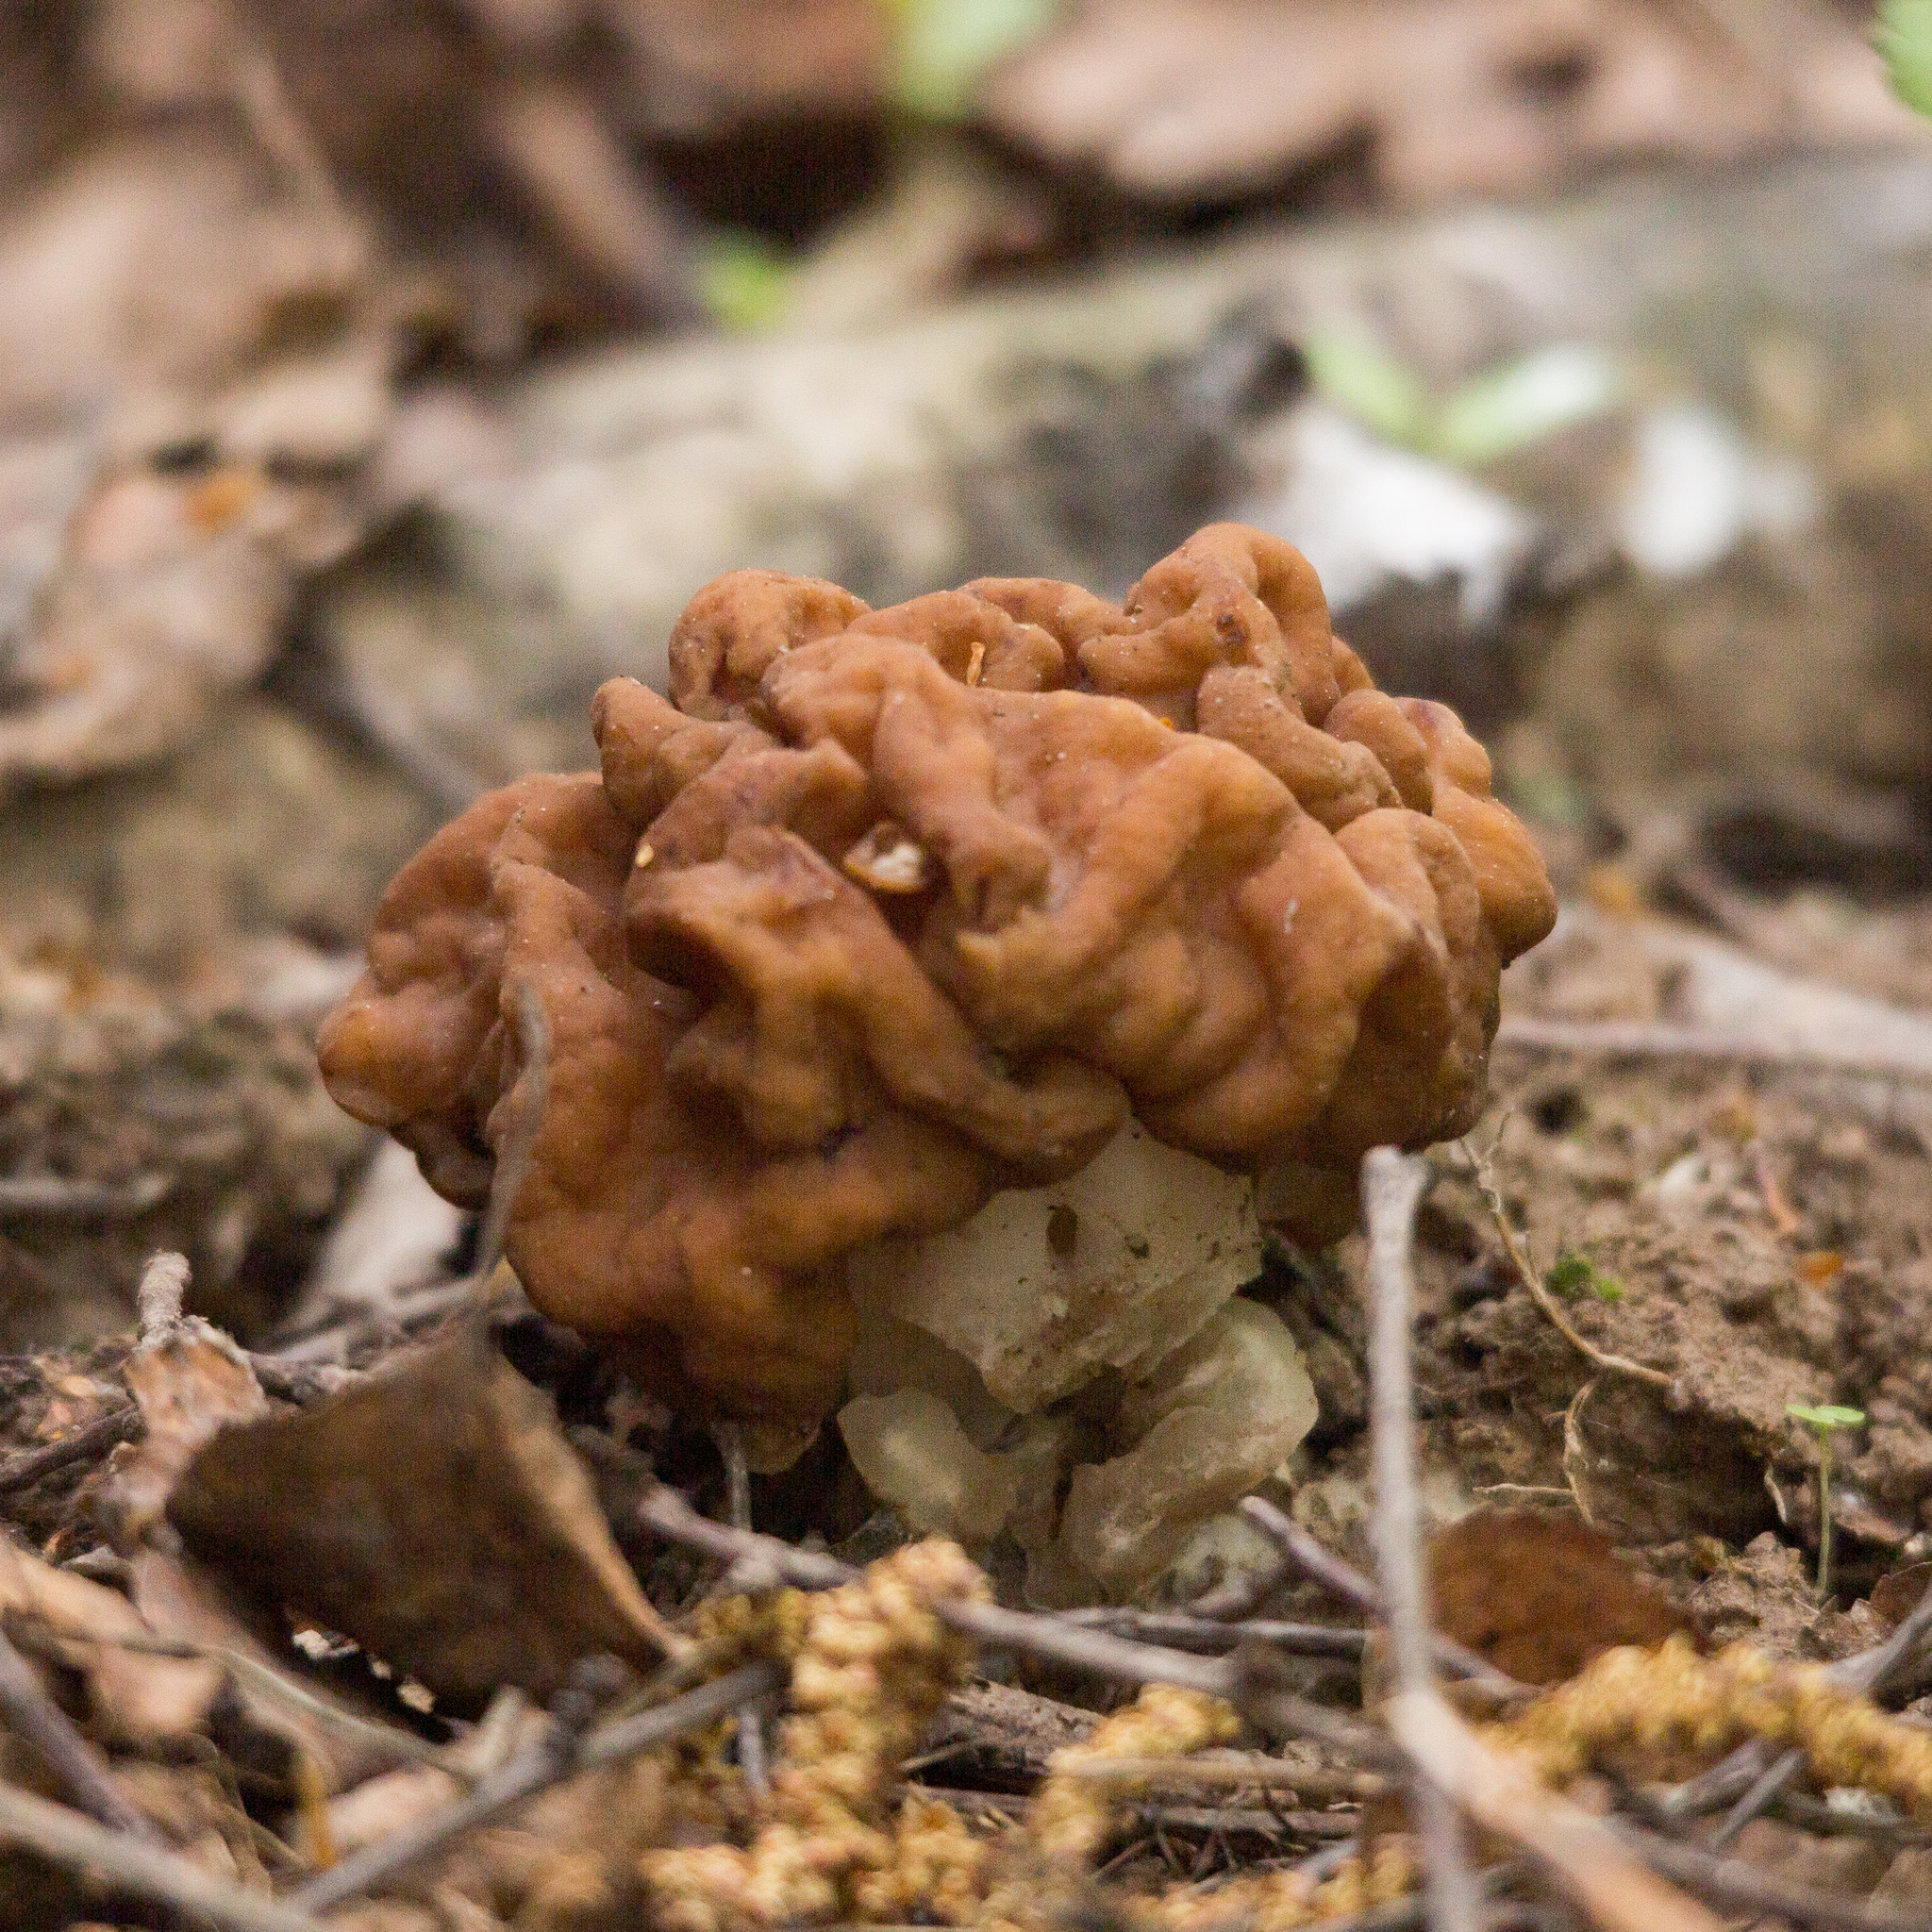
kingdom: Fungi
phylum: Ascomycota
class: Pezizomycetes
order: Pezizales
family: Discinaceae
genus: Gyromitra
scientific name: Gyromitra gigas
